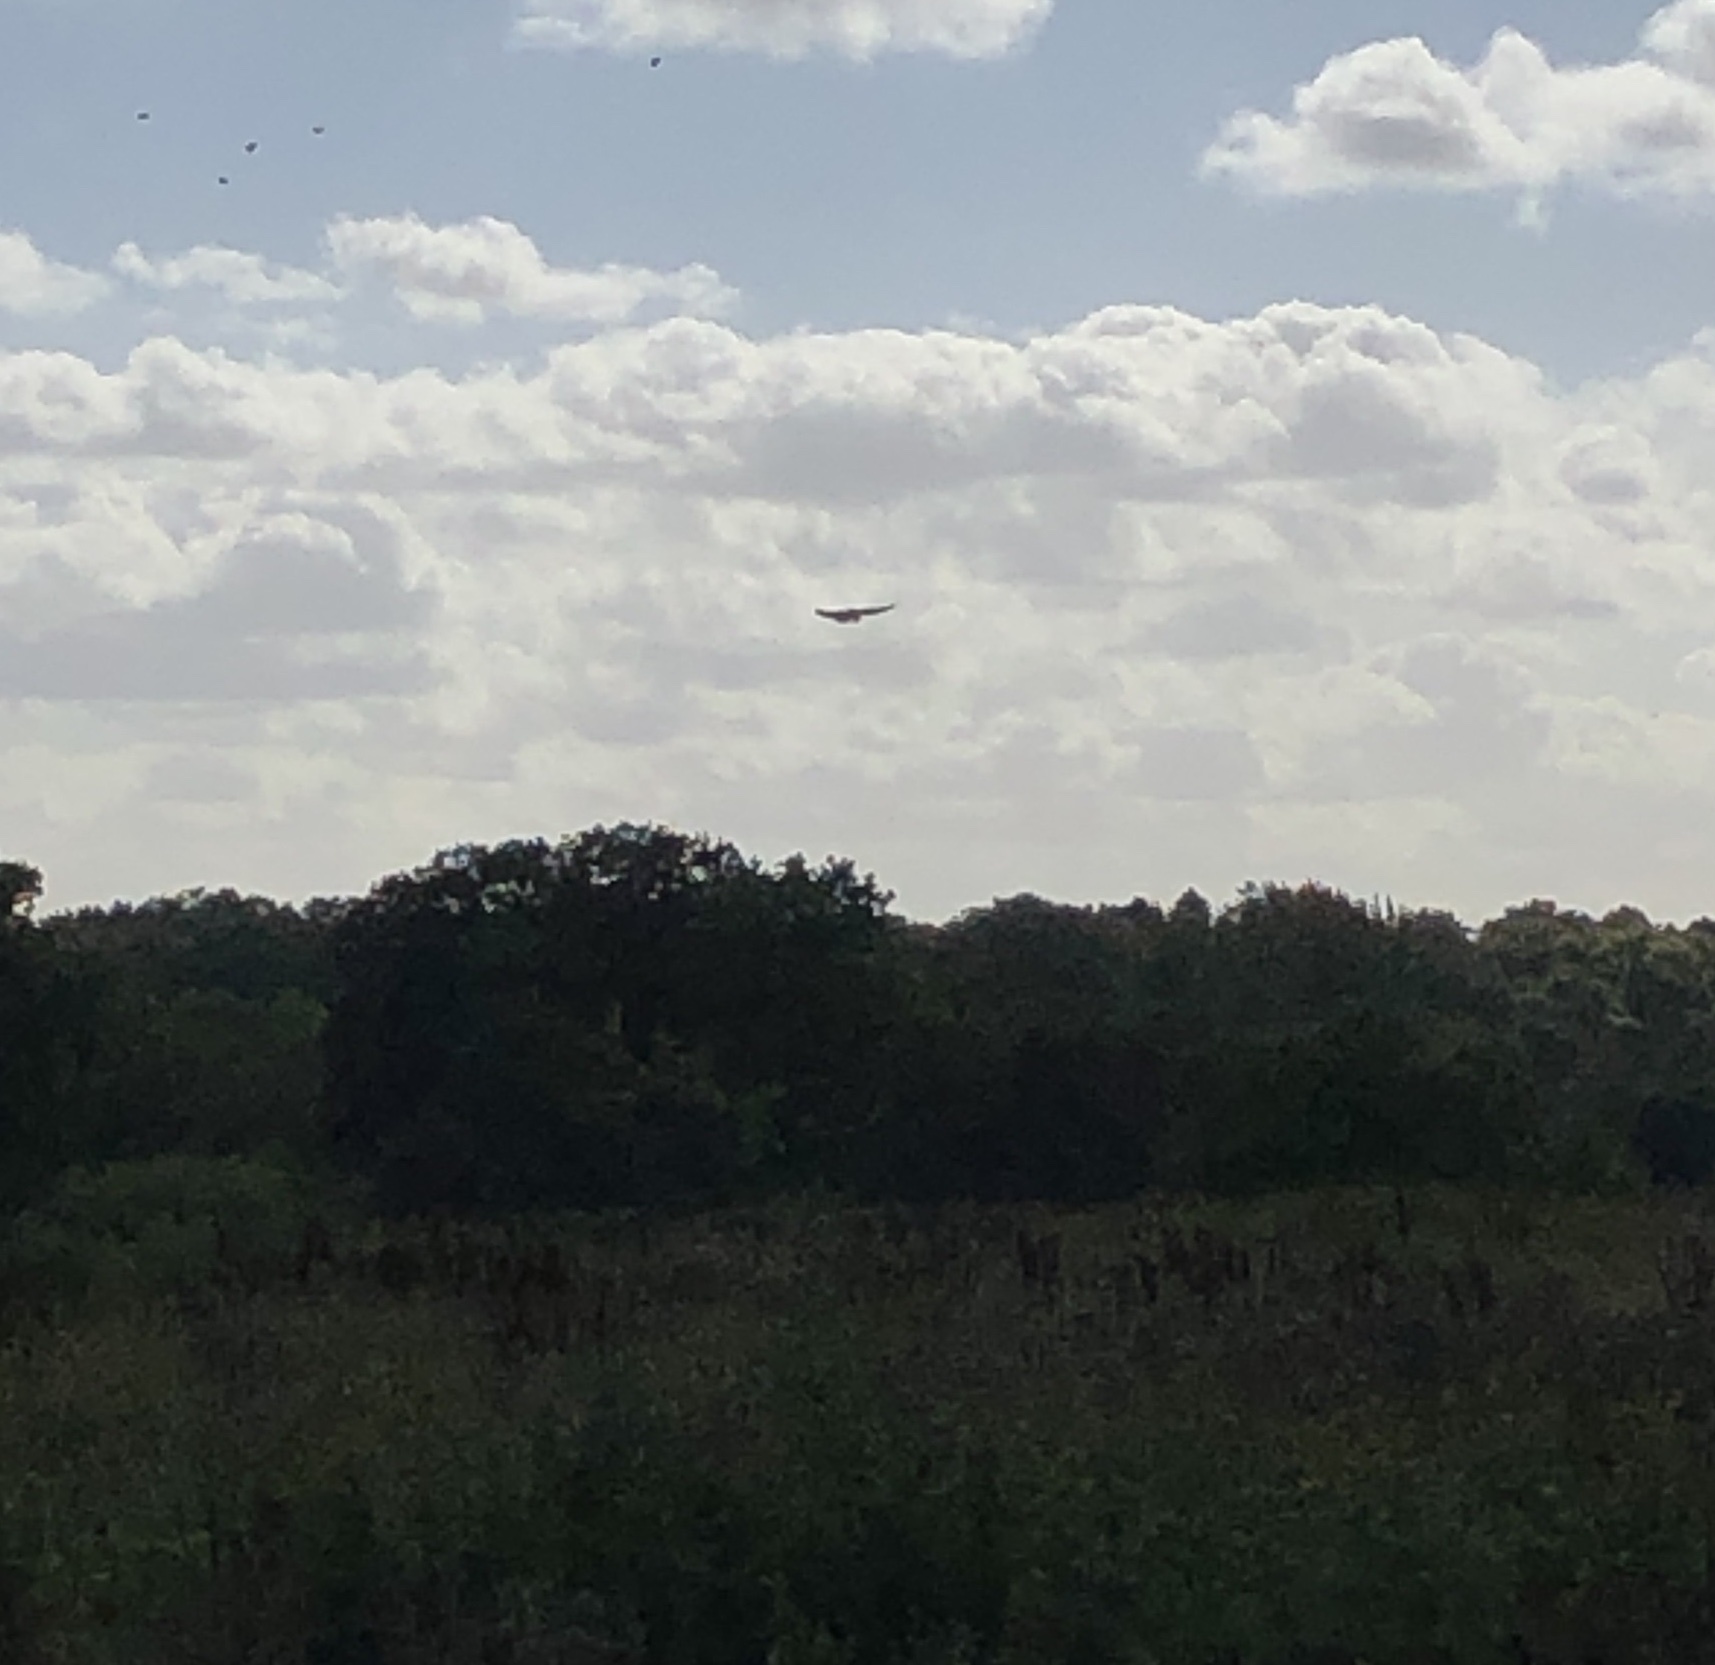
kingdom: Animalia
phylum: Chordata
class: Aves
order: Falconiformes
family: Falconidae
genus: Falco
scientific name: Falco tinnunculus
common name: Common kestrel
